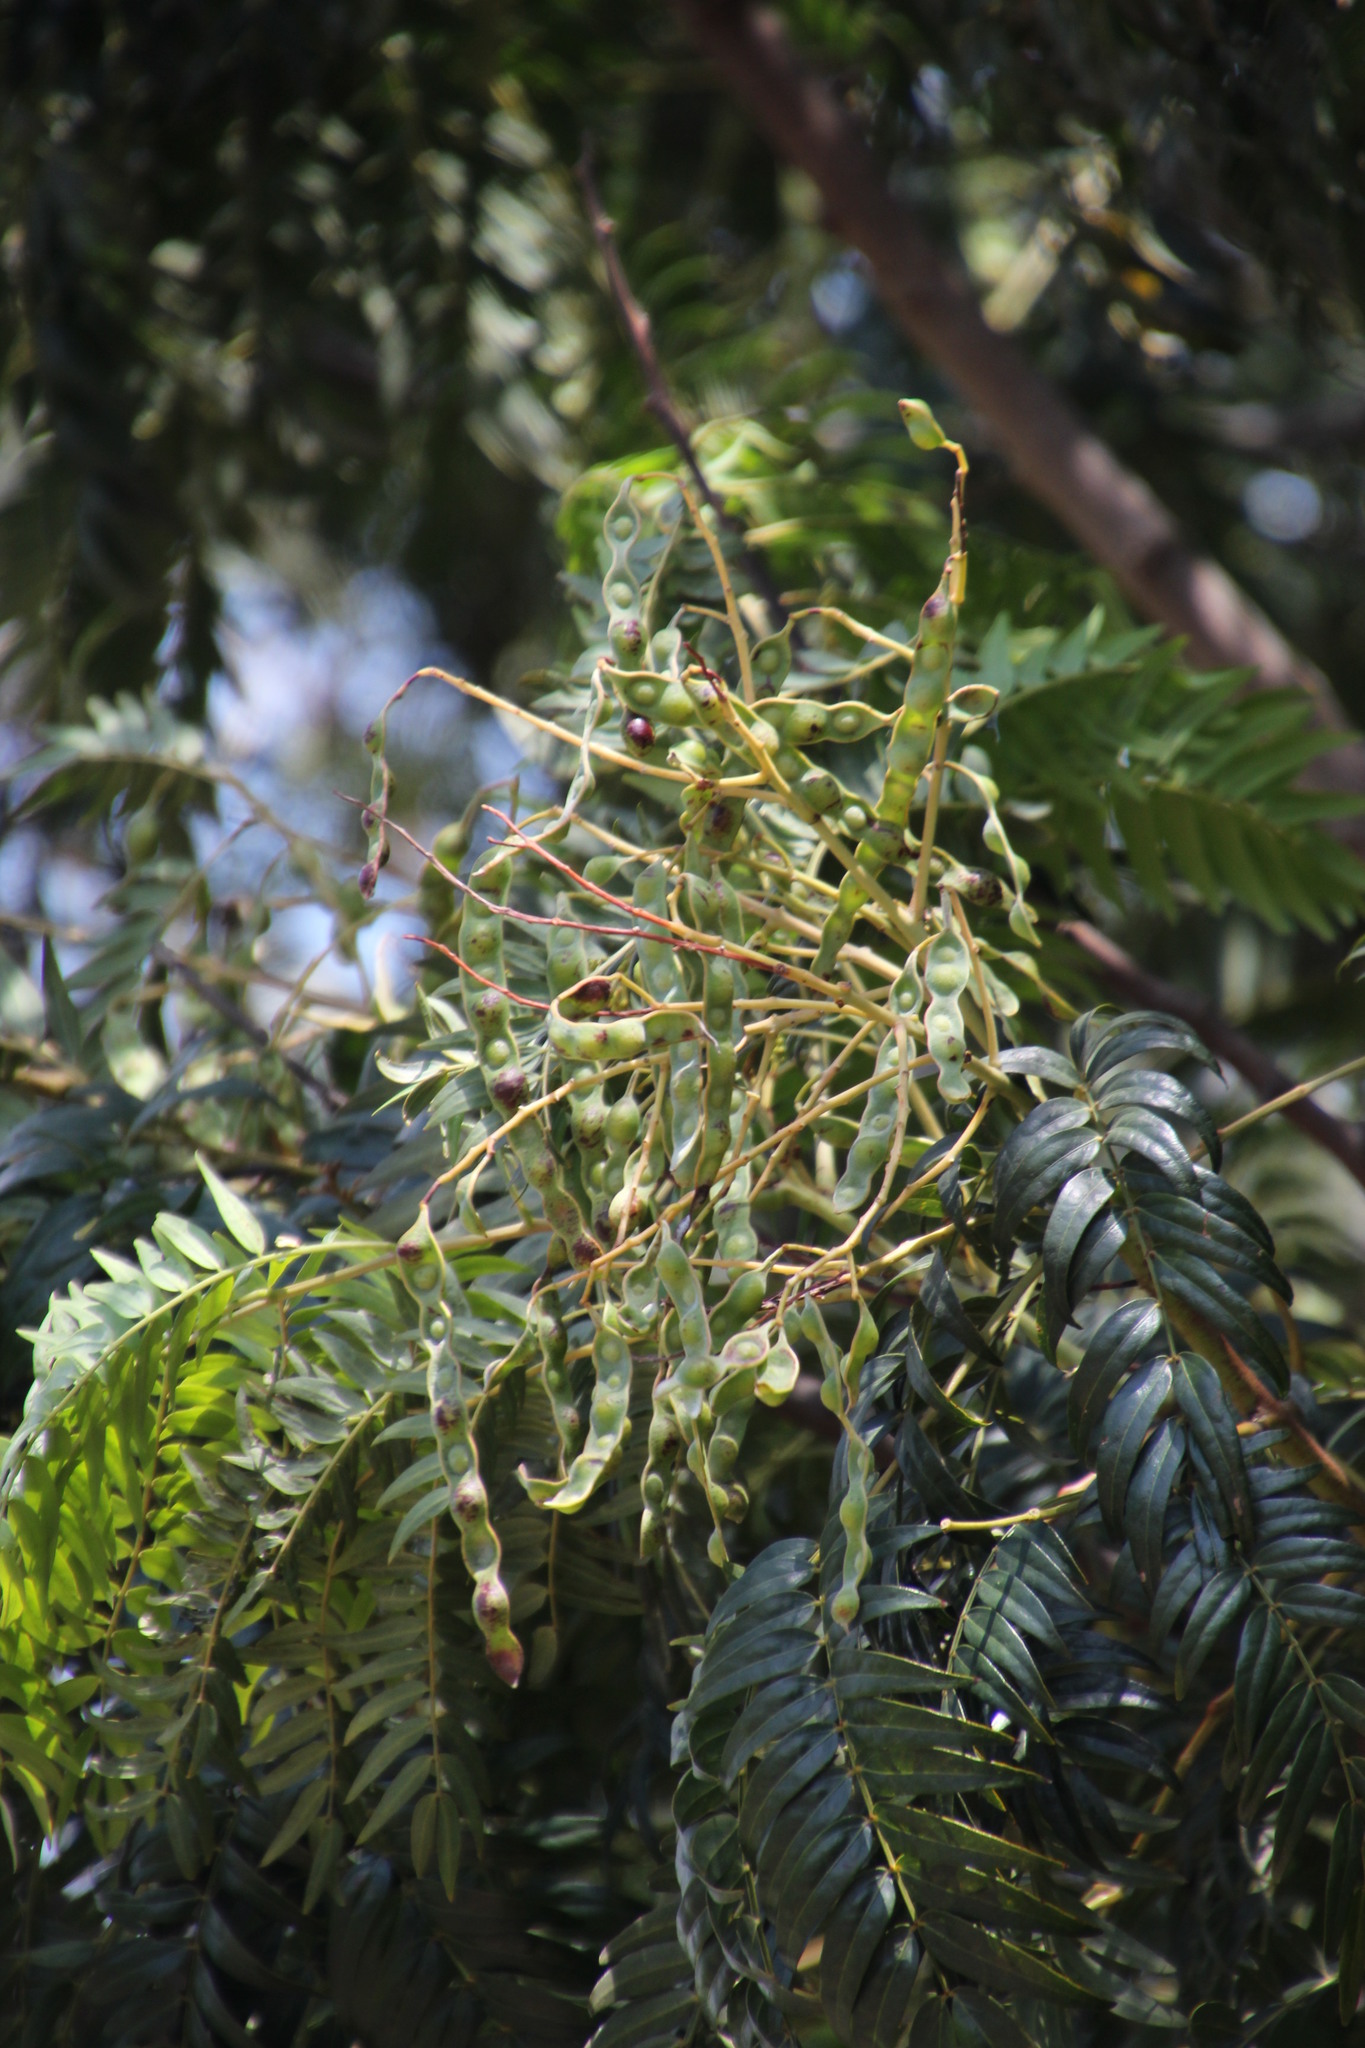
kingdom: Plantae
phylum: Tracheophyta
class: Magnoliopsida
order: Fabales
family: Fabaceae
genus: Acacia
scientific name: Acacia elata
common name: Cedar wattle
